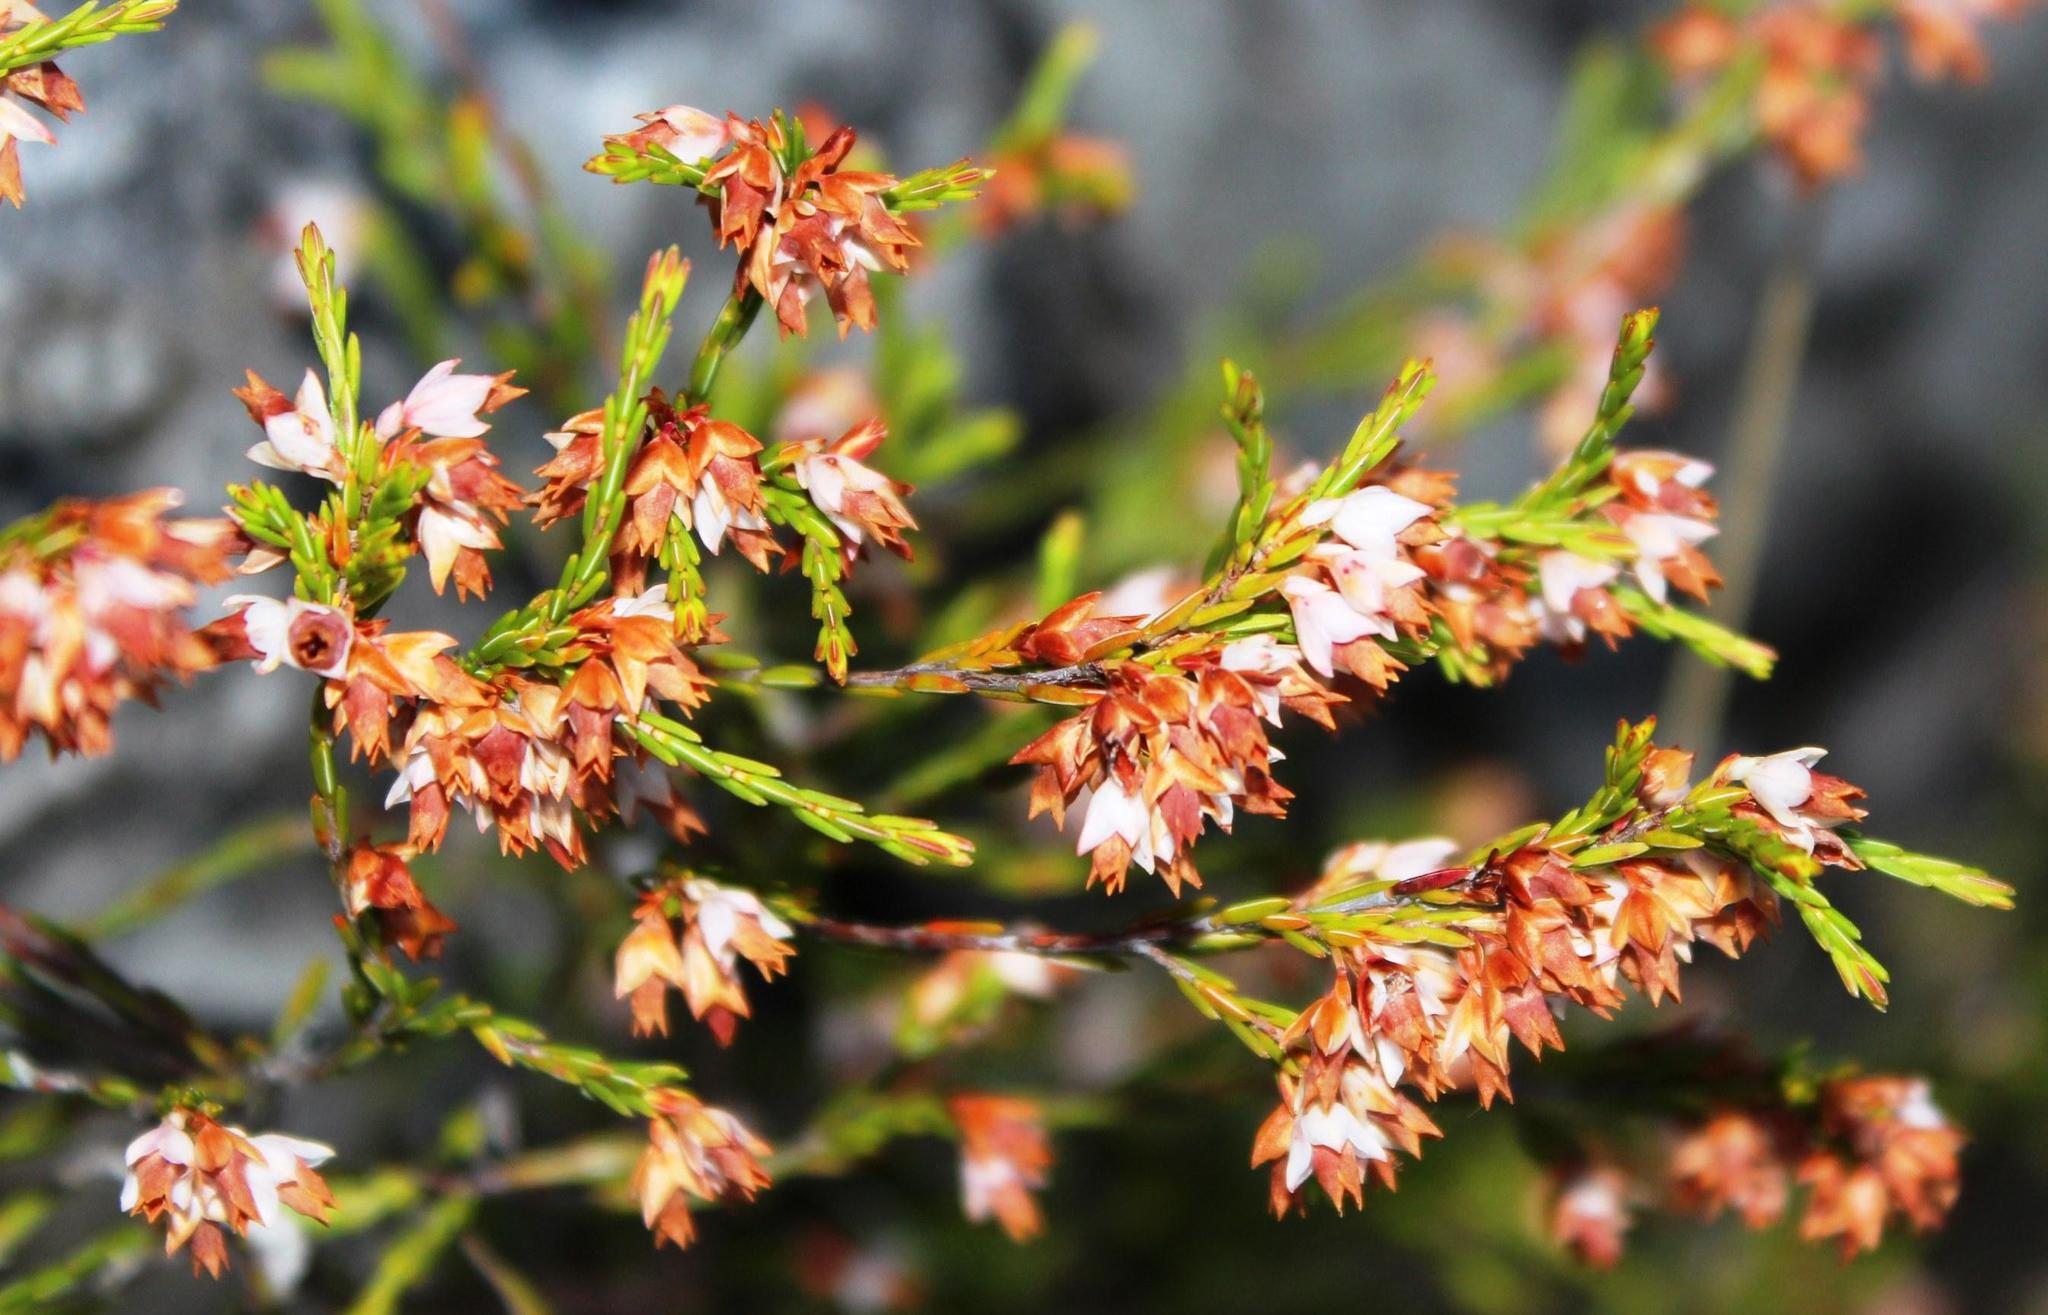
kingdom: Plantae
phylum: Tracheophyta
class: Magnoliopsida
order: Ericales
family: Ericaceae
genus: Erica
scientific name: Erica lutea
